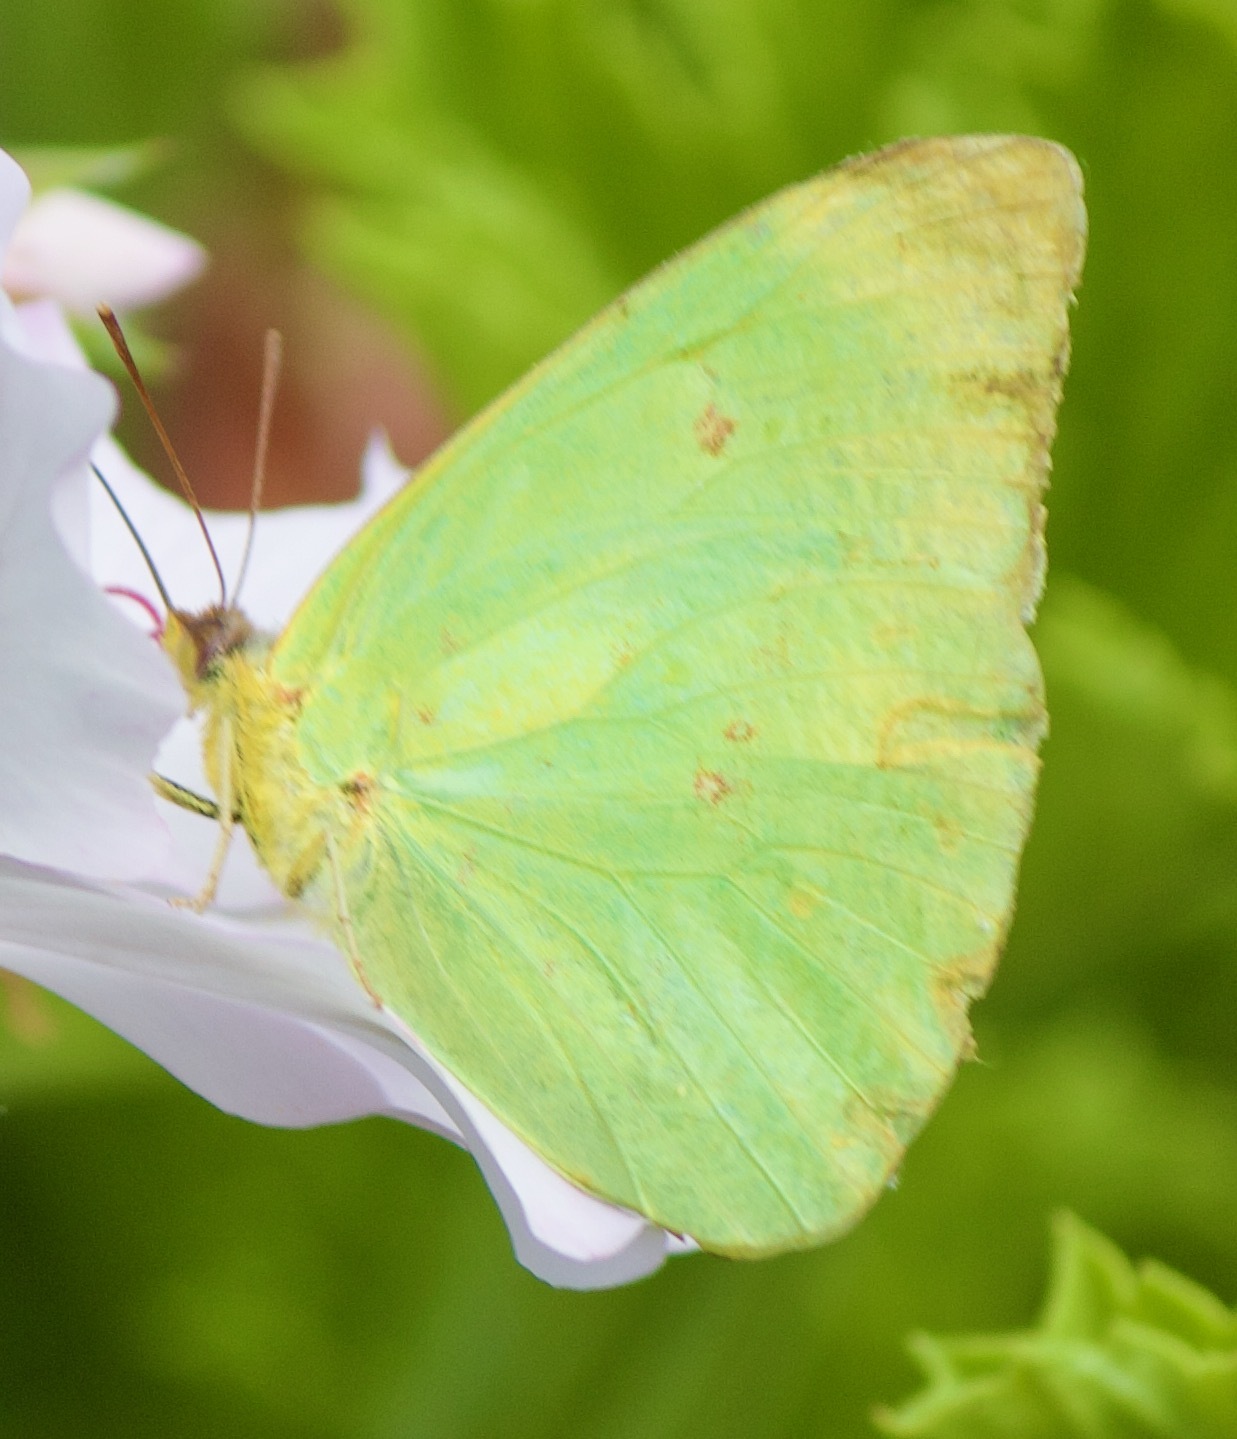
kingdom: Animalia
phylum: Arthropoda
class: Insecta
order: Lepidoptera
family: Pieridae
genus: Phoebis
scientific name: Phoebis sennae
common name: Cloudless sulphur
